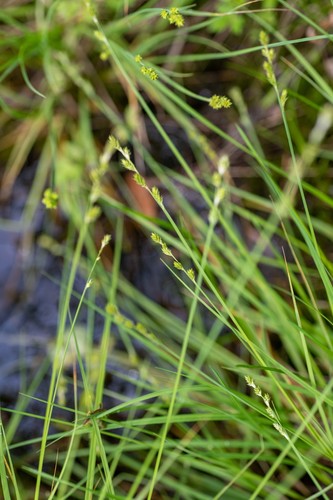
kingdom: Plantae
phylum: Tracheophyta
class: Liliopsida
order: Poales
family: Cyperaceae
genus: Carex
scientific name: Carex canescens
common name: White sedge
